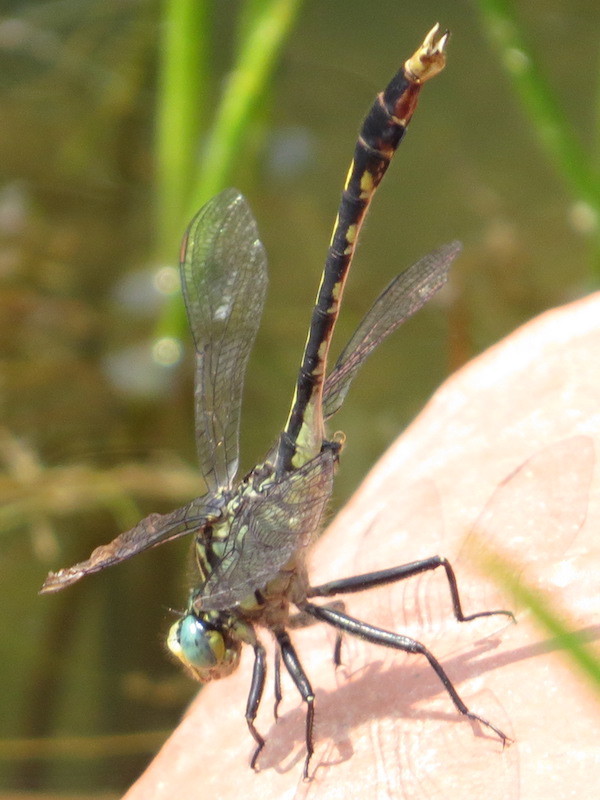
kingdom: Animalia
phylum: Arthropoda
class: Insecta
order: Odonata
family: Gomphidae
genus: Arigomphus
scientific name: Arigomphus villosipes
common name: Unicorn clubtail
